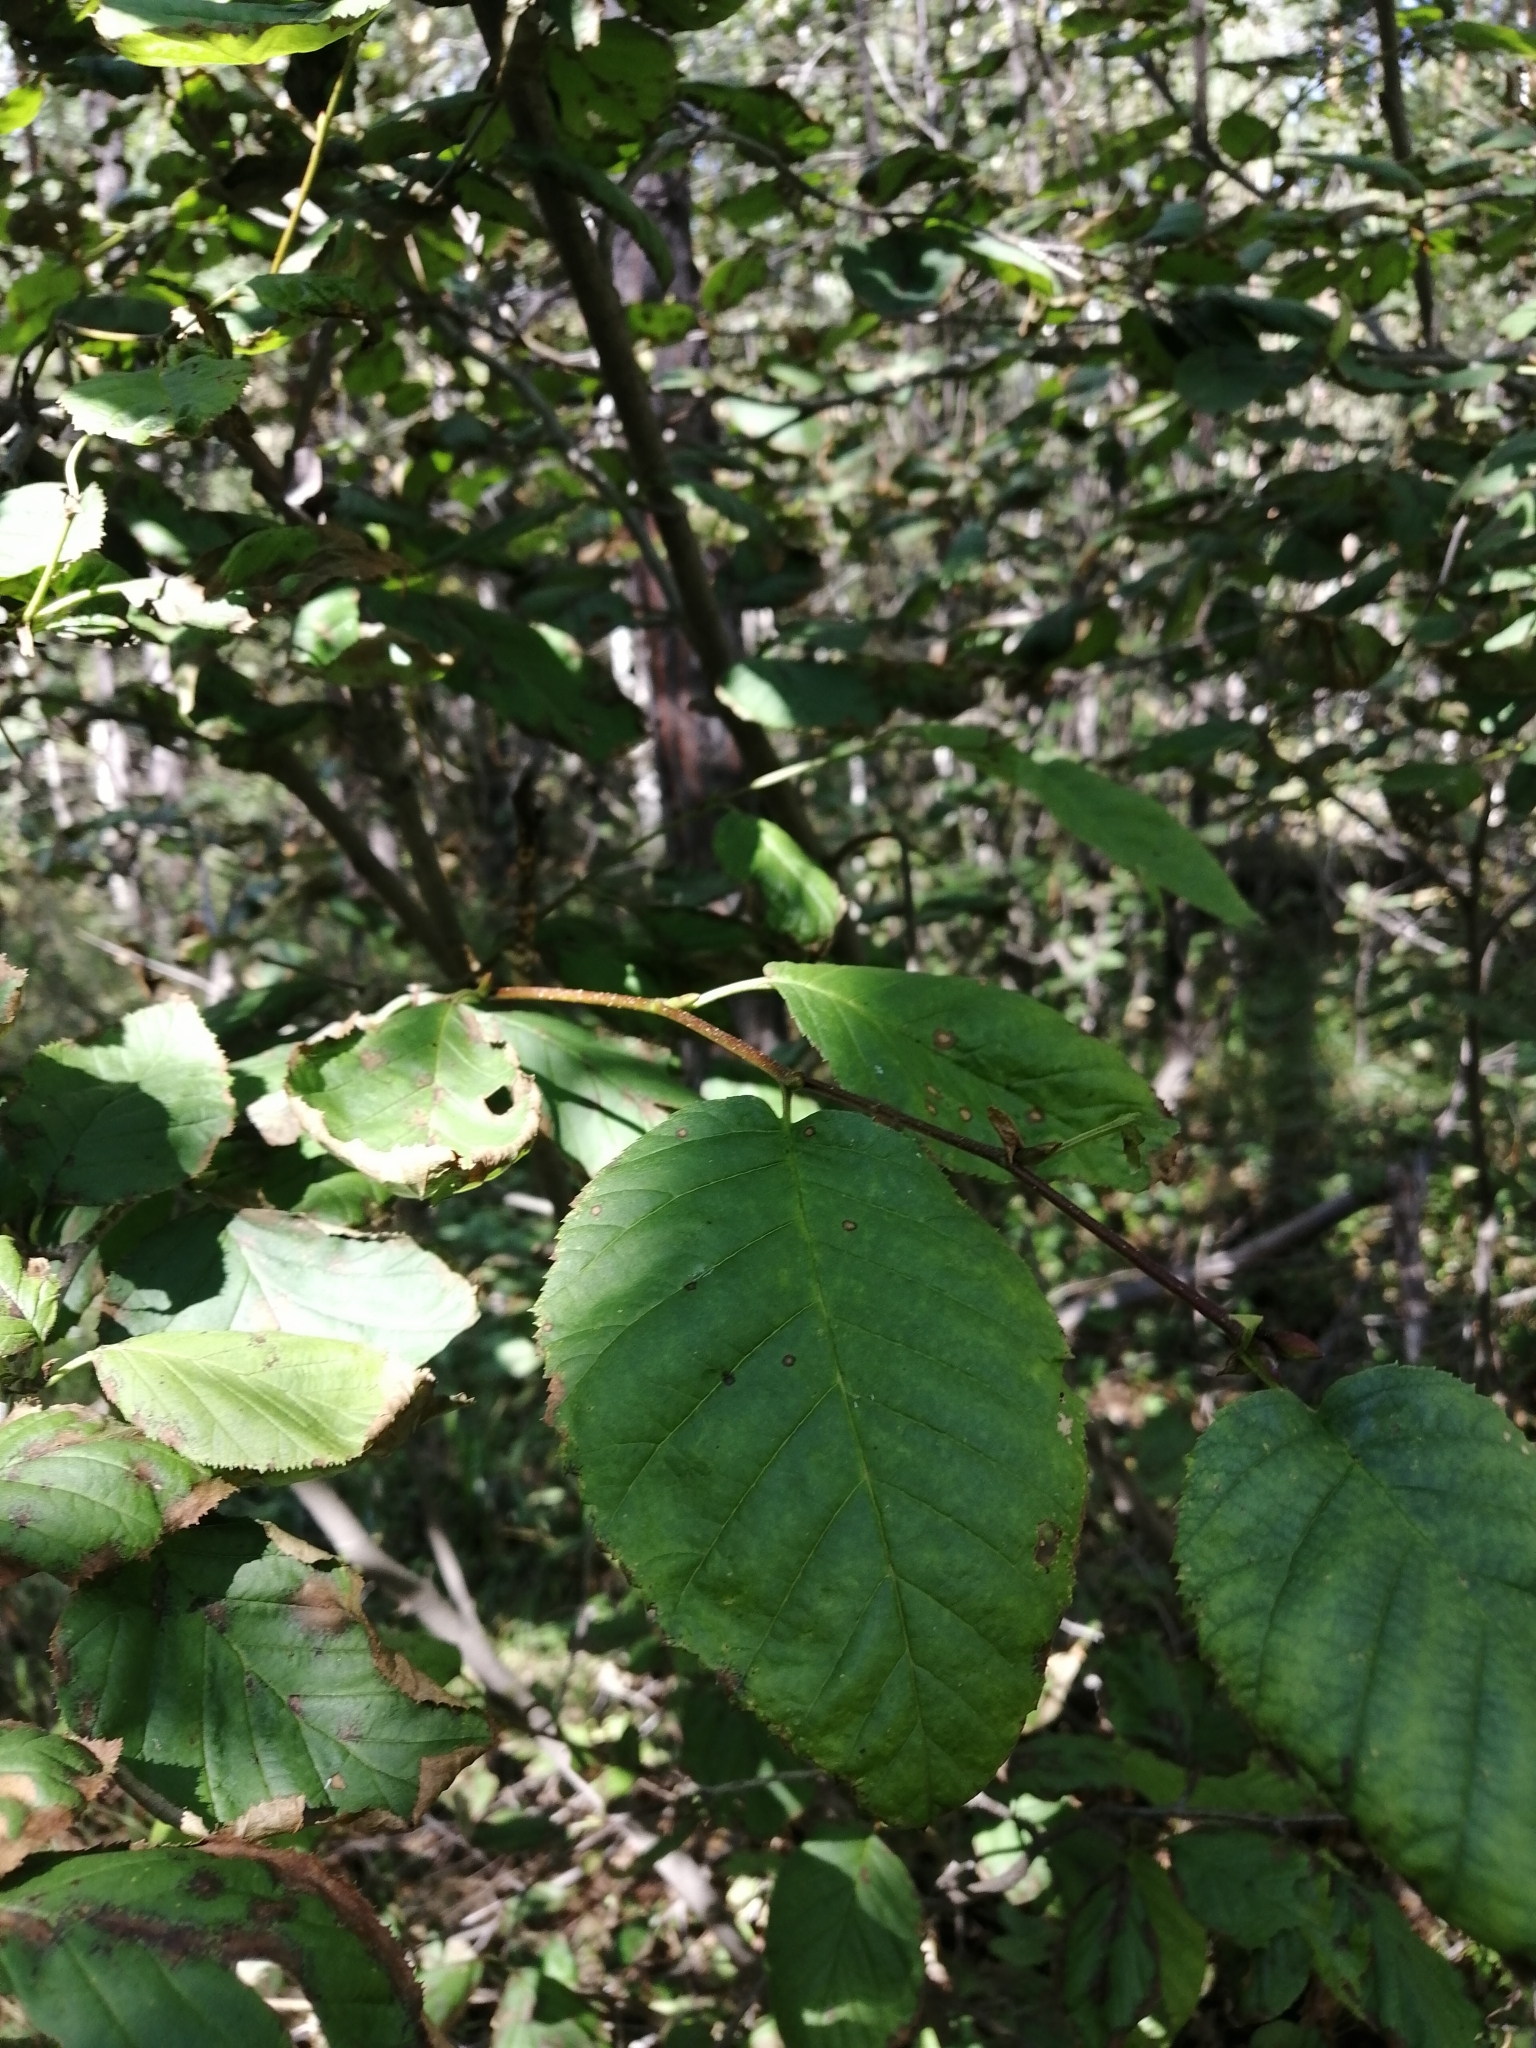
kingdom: Plantae
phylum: Tracheophyta
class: Magnoliopsida
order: Fagales
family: Betulaceae
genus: Alnus
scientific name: Alnus alnobetula
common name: Green alder
